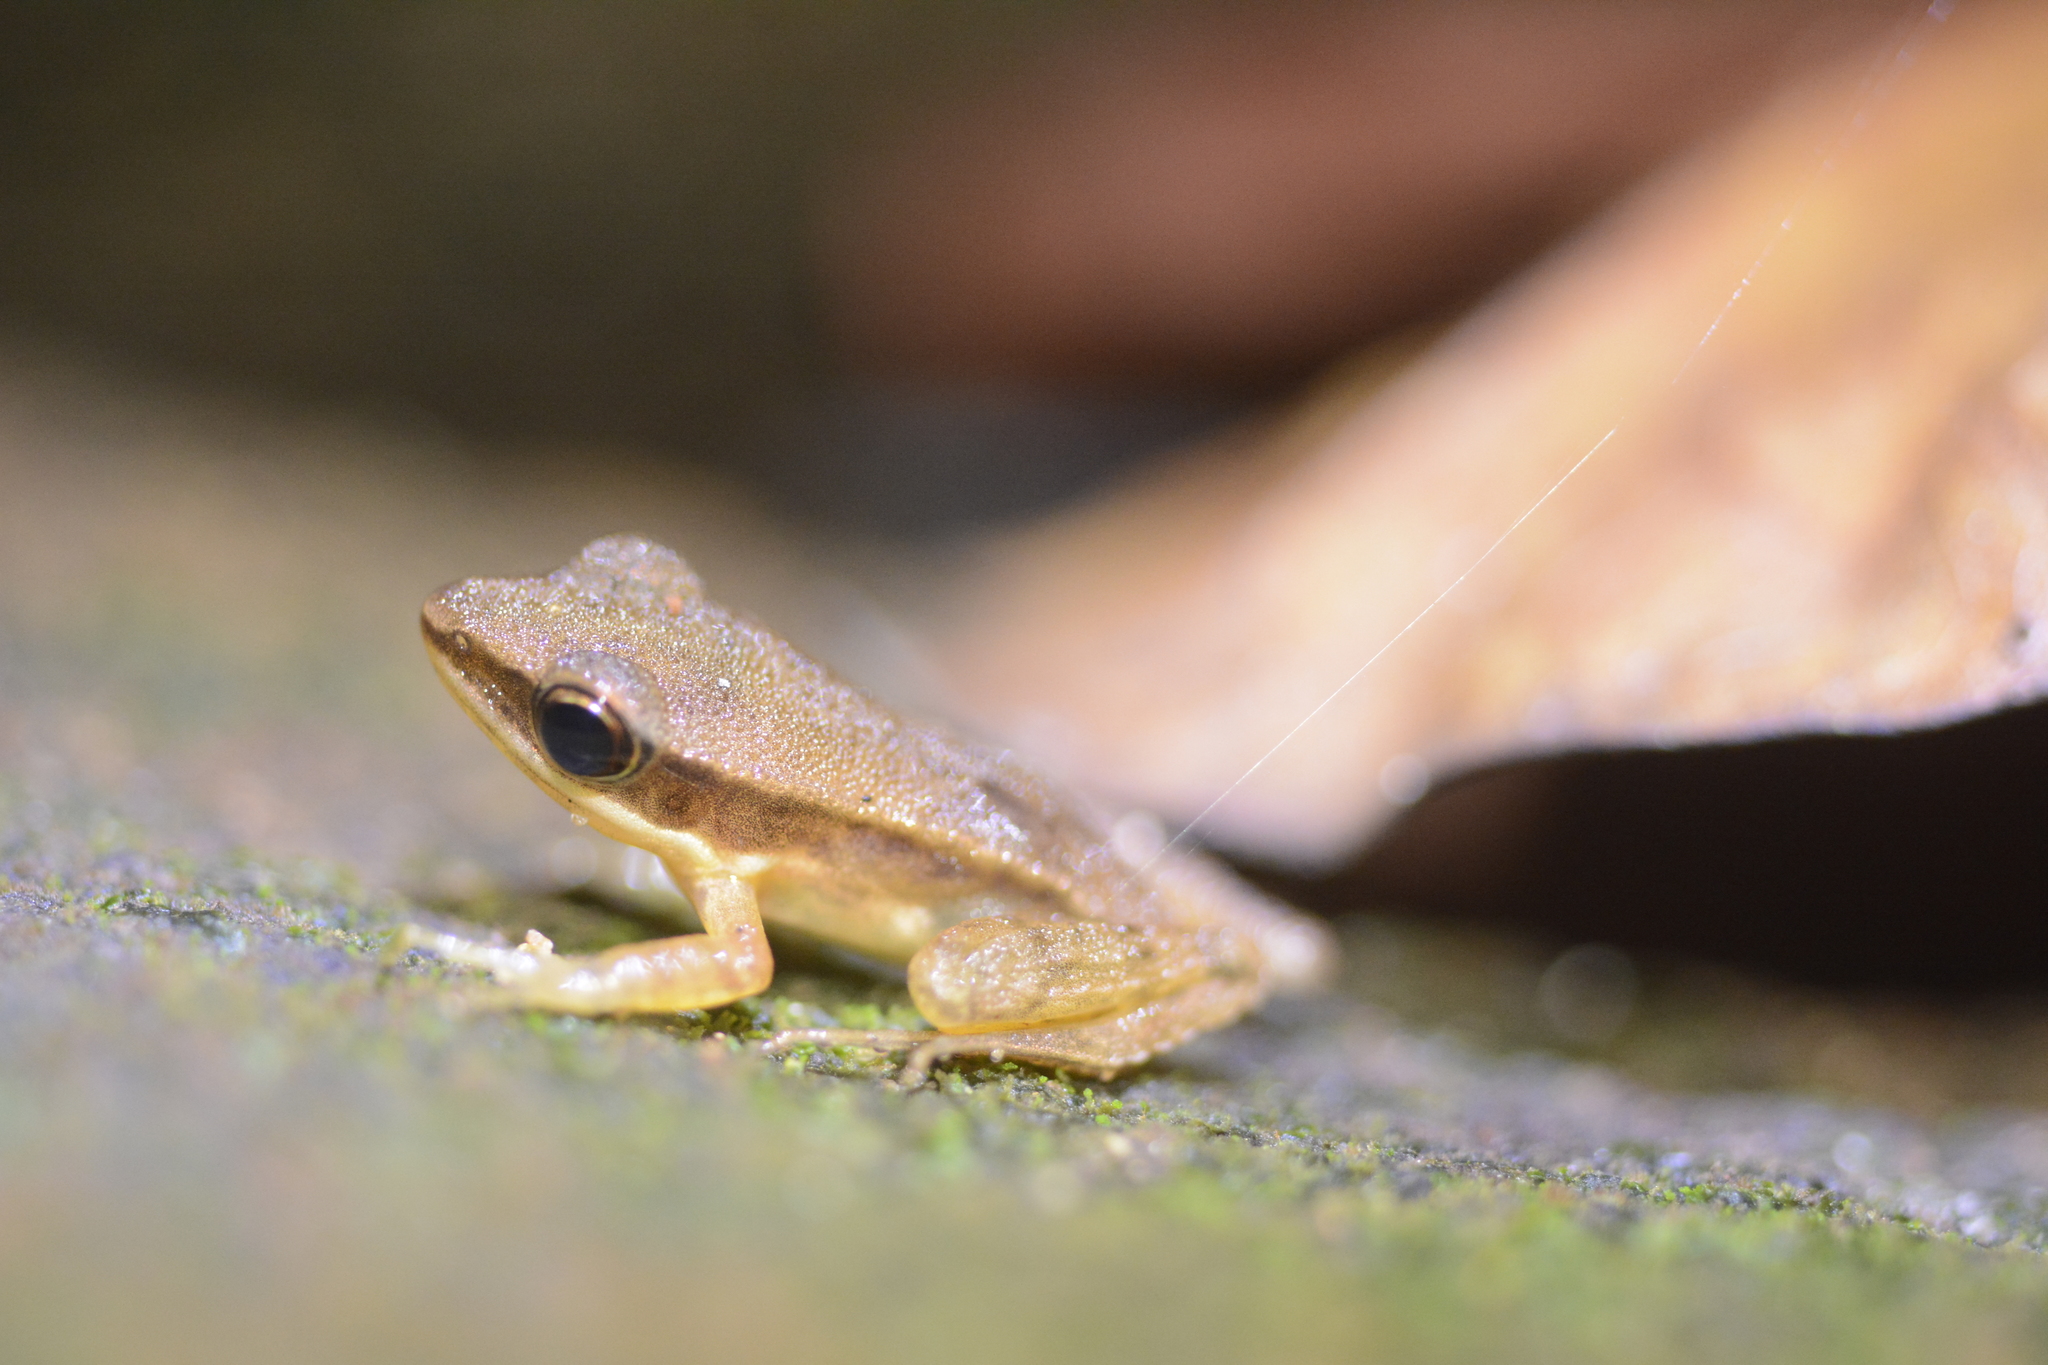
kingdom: Animalia
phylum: Chordata
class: Amphibia
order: Anura
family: Ranidae
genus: Indosylvirana
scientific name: Indosylvirana serendipi
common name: Sri lankan golden-backed frog
